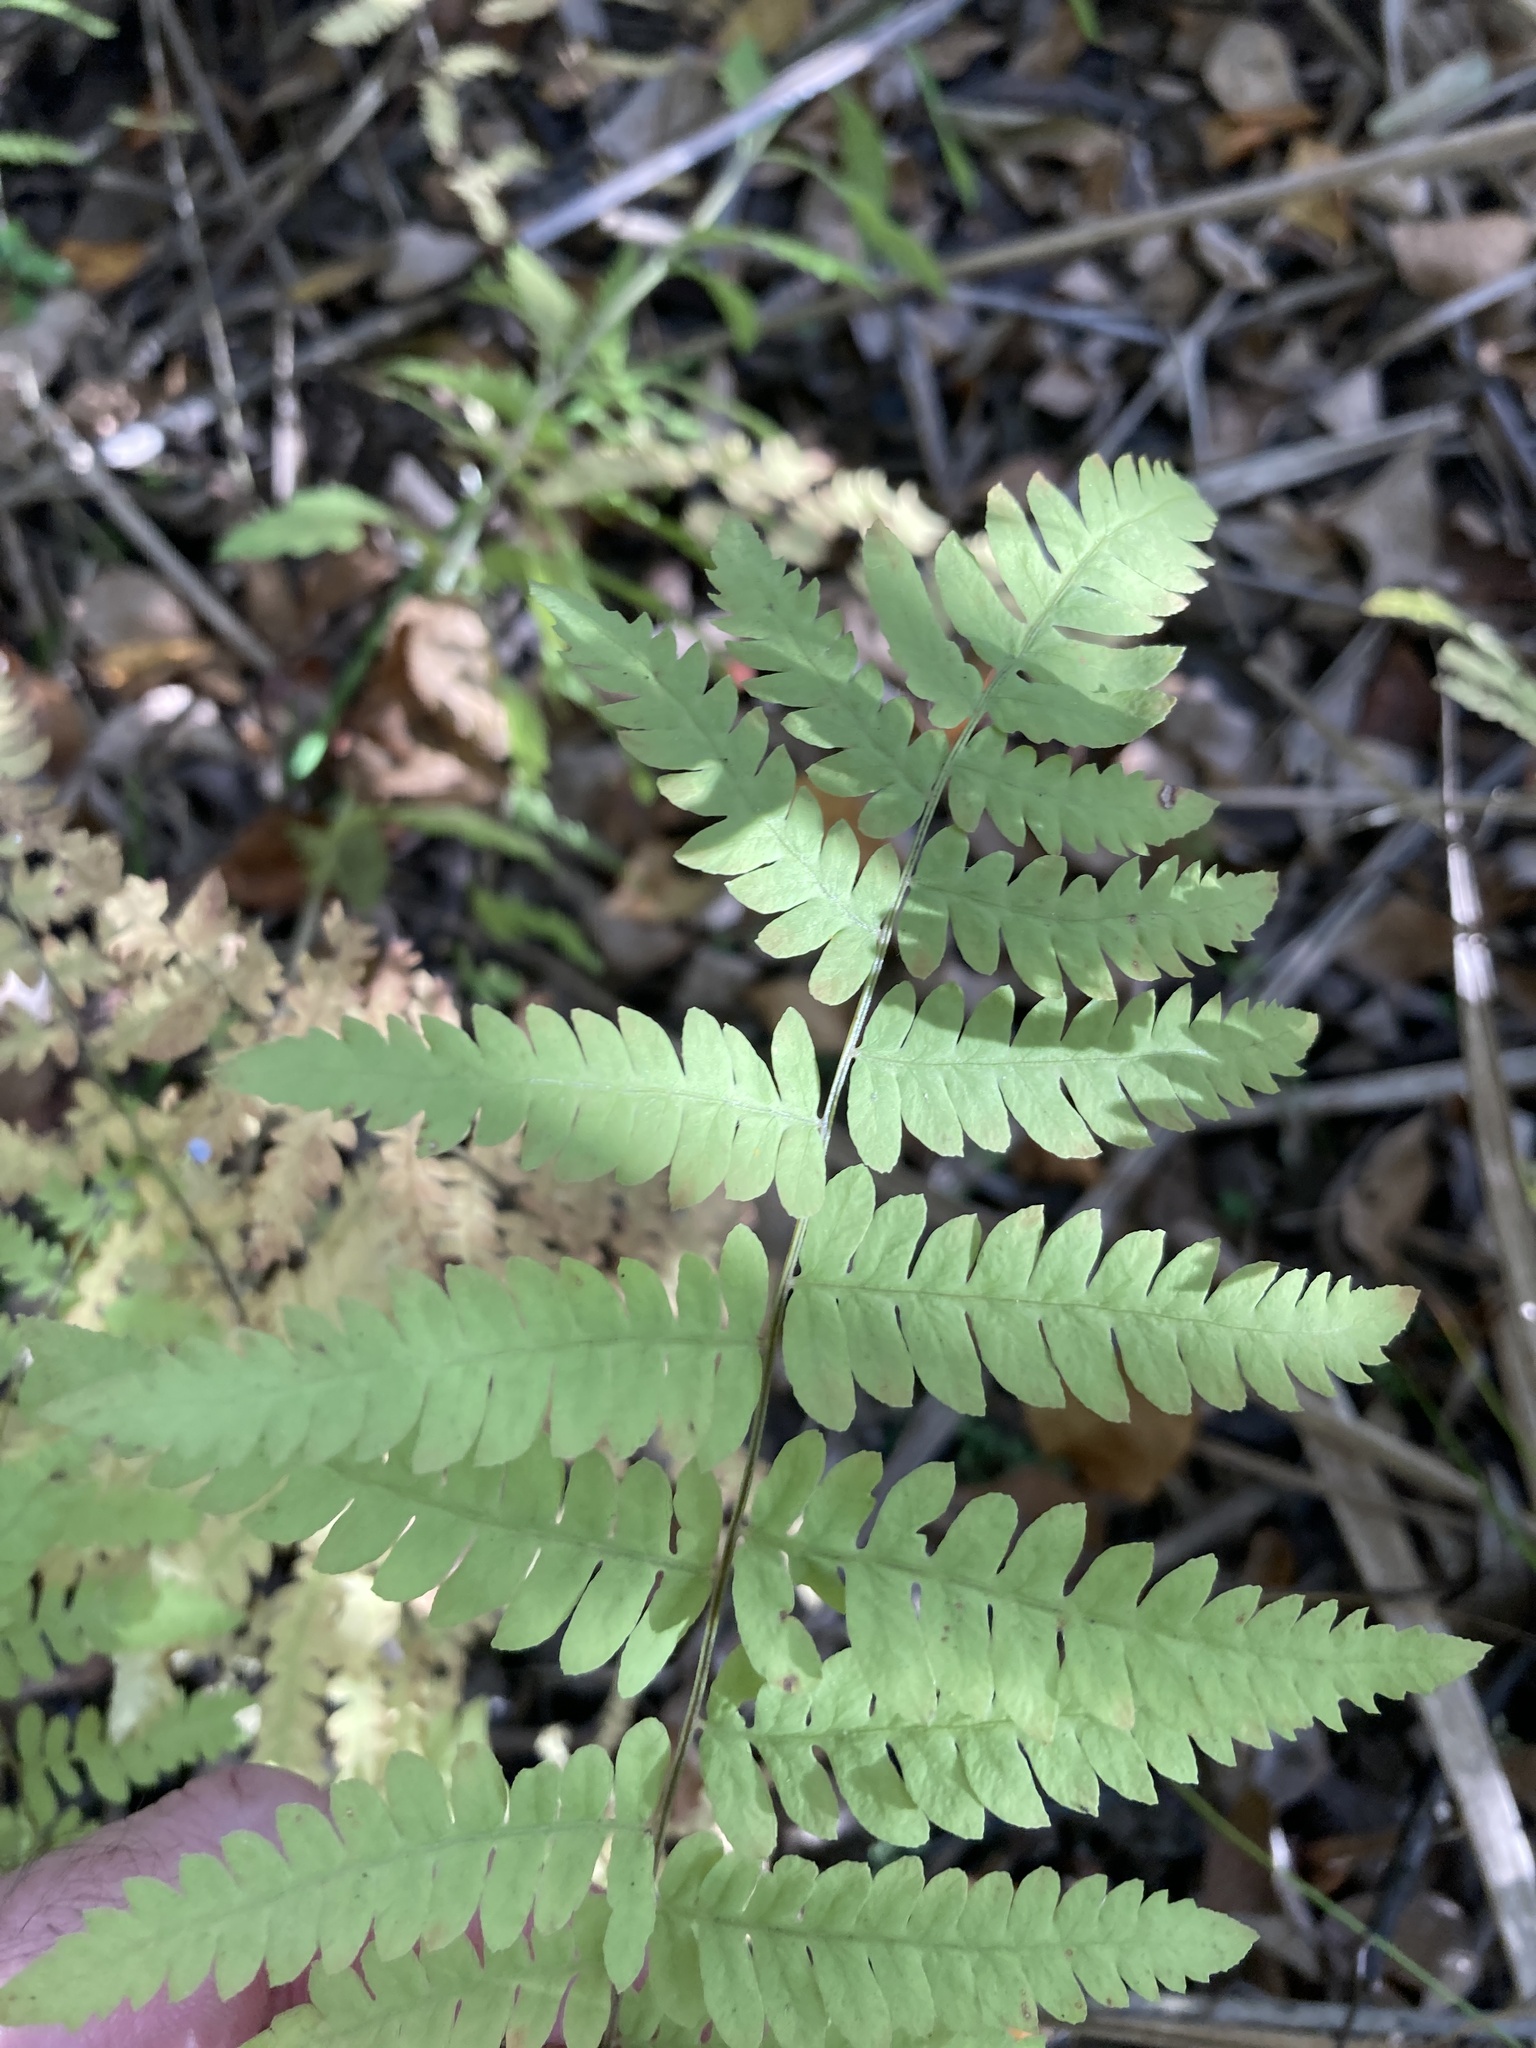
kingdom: Plantae
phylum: Tracheophyta
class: Polypodiopsida
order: Polypodiales
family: Thelypteridaceae
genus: Thelypteris
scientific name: Thelypteris palustris
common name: Marsh fern
